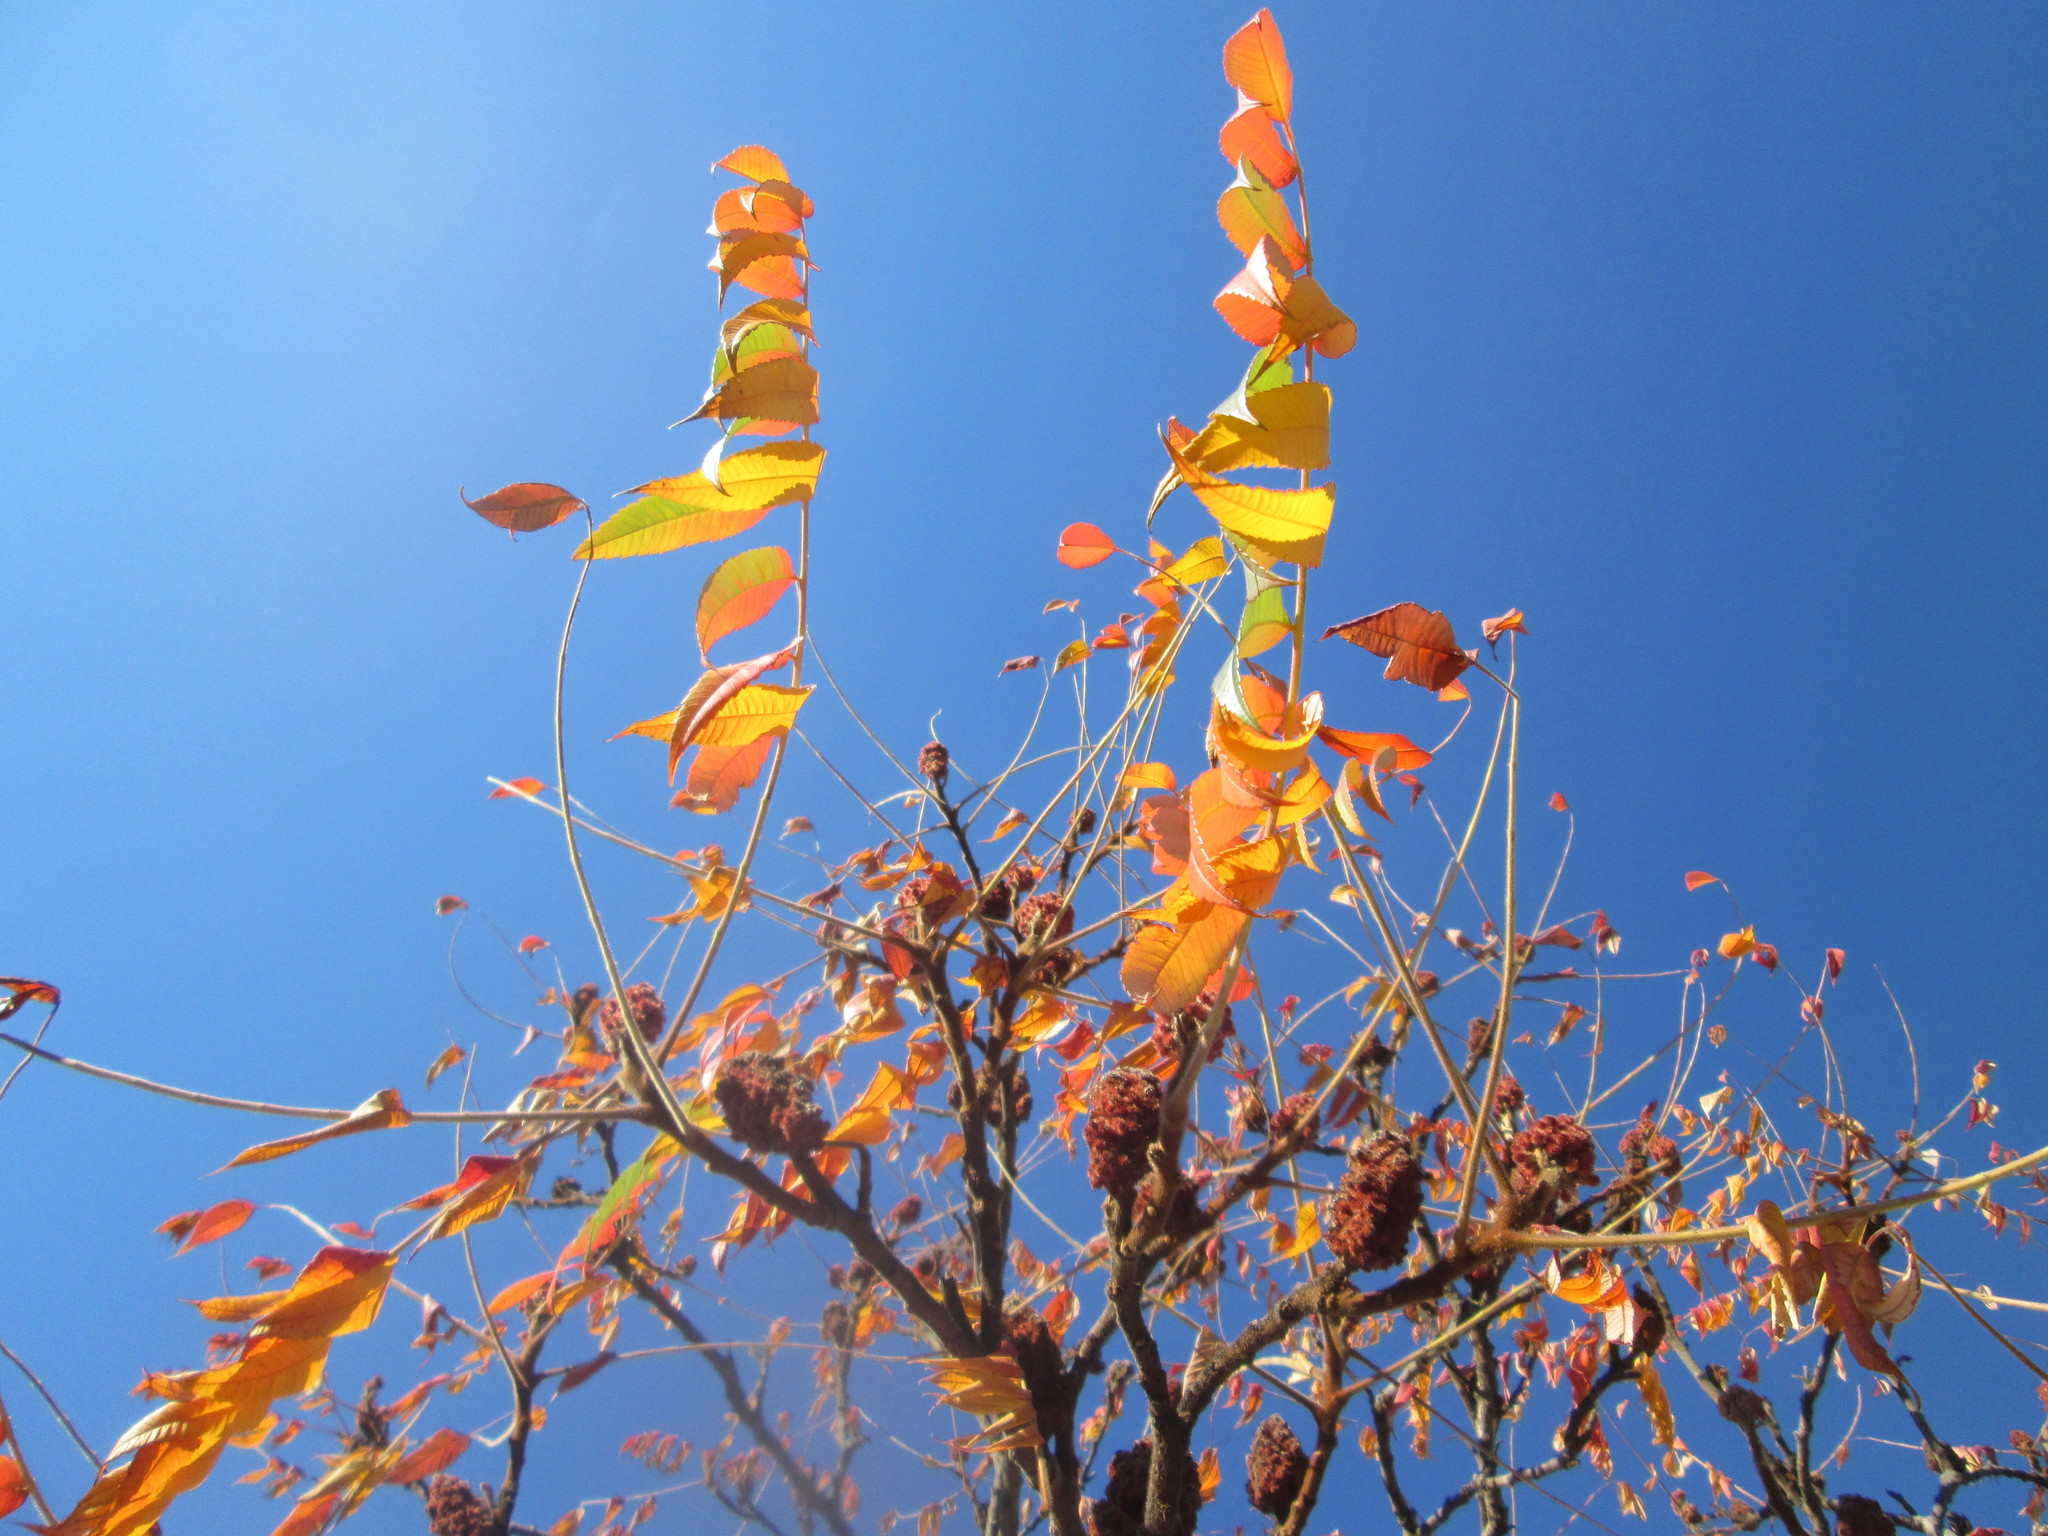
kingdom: Plantae
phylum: Tracheophyta
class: Magnoliopsida
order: Sapindales
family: Anacardiaceae
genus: Rhus
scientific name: Rhus typhina
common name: Staghorn sumac
